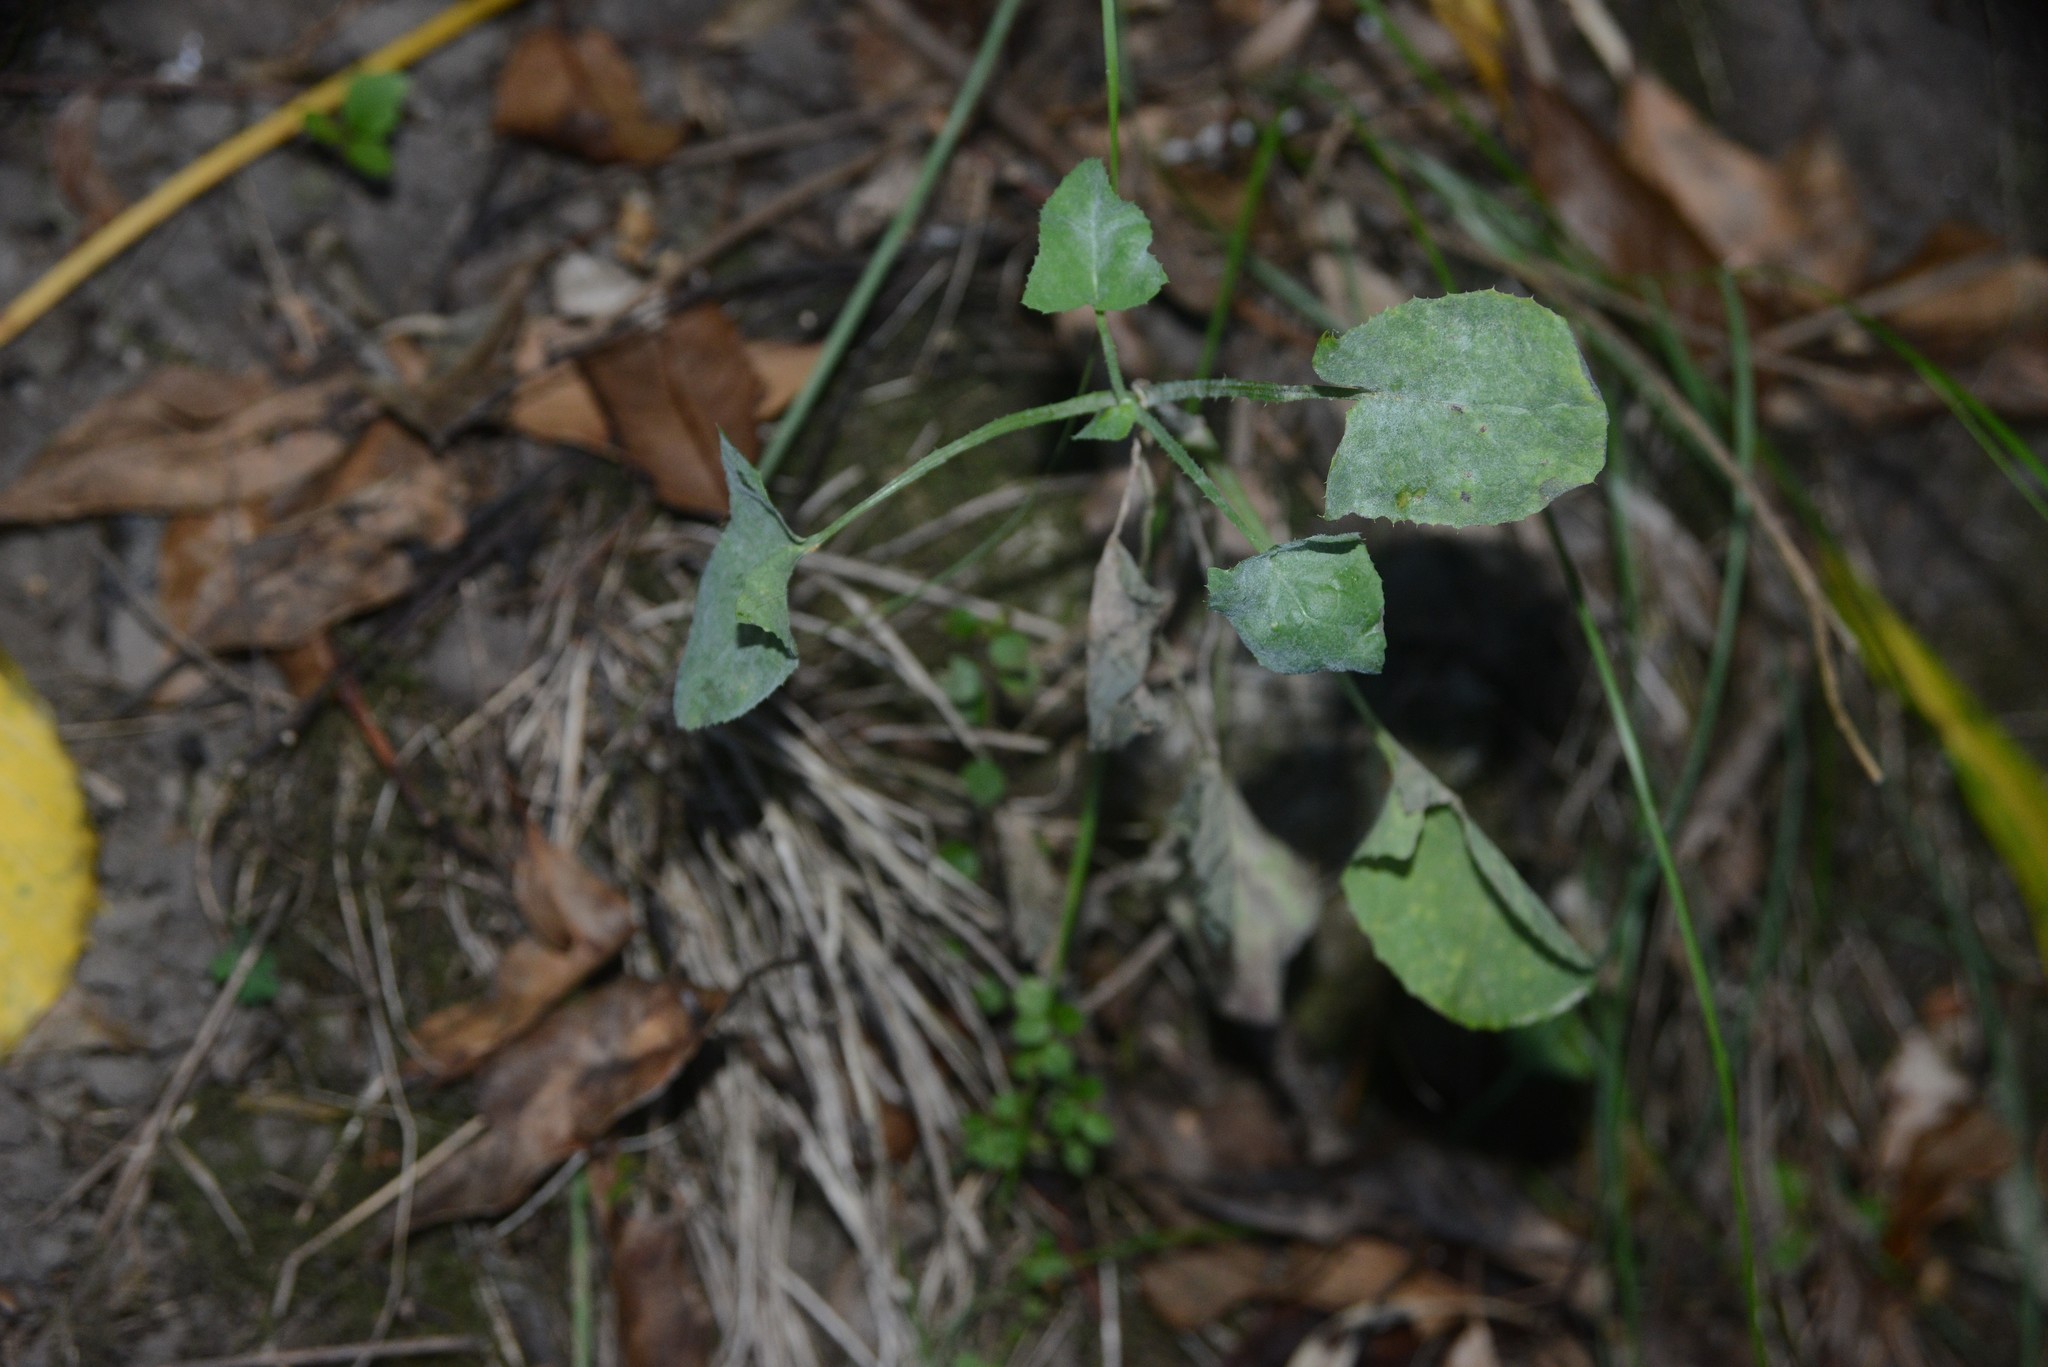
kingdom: Plantae
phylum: Tracheophyta
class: Magnoliopsida
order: Asterales
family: Asteraceae
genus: Sonchus
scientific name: Sonchus oleraceus
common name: Common sowthistle
